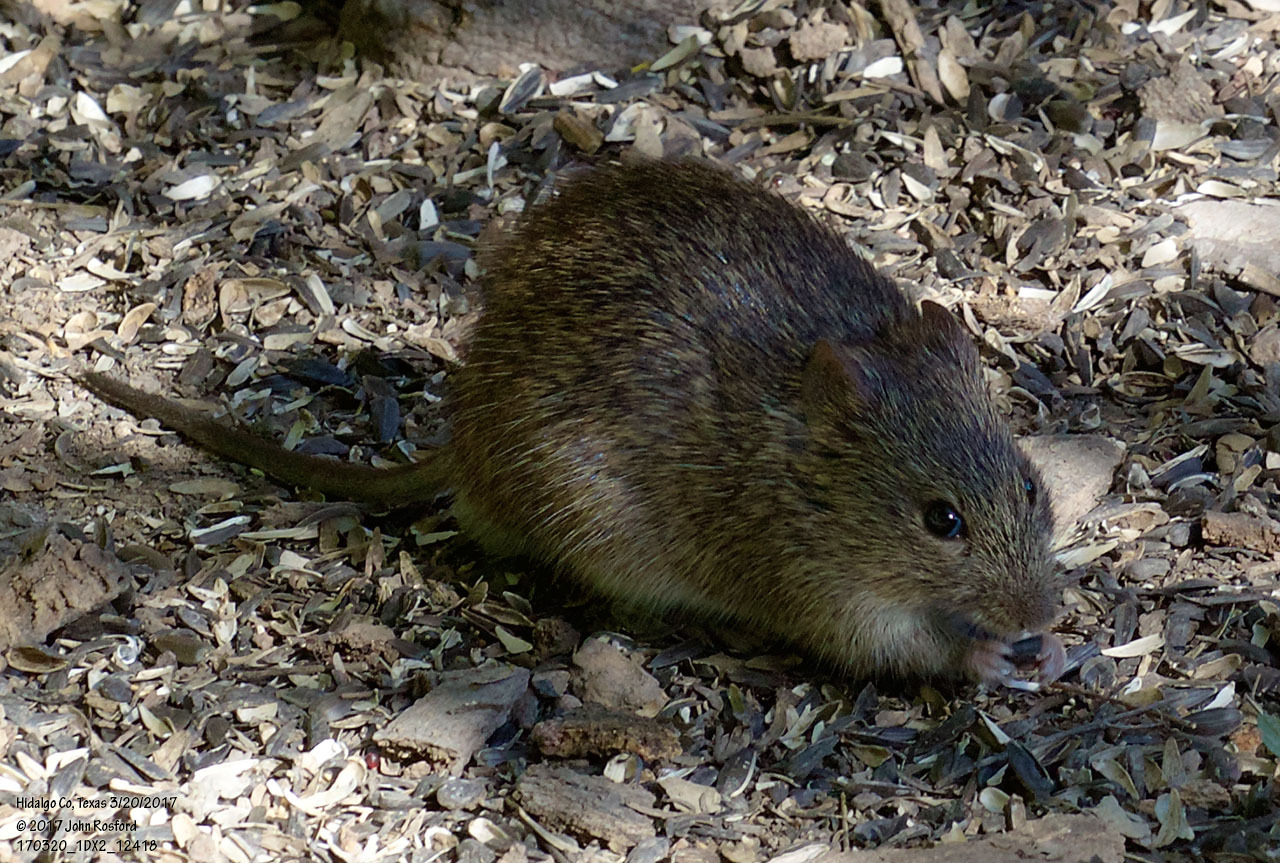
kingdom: Animalia
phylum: Chordata
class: Mammalia
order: Rodentia
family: Cricetidae
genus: Sigmodon
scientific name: Sigmodon hispidus
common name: Hispid cotton rat
